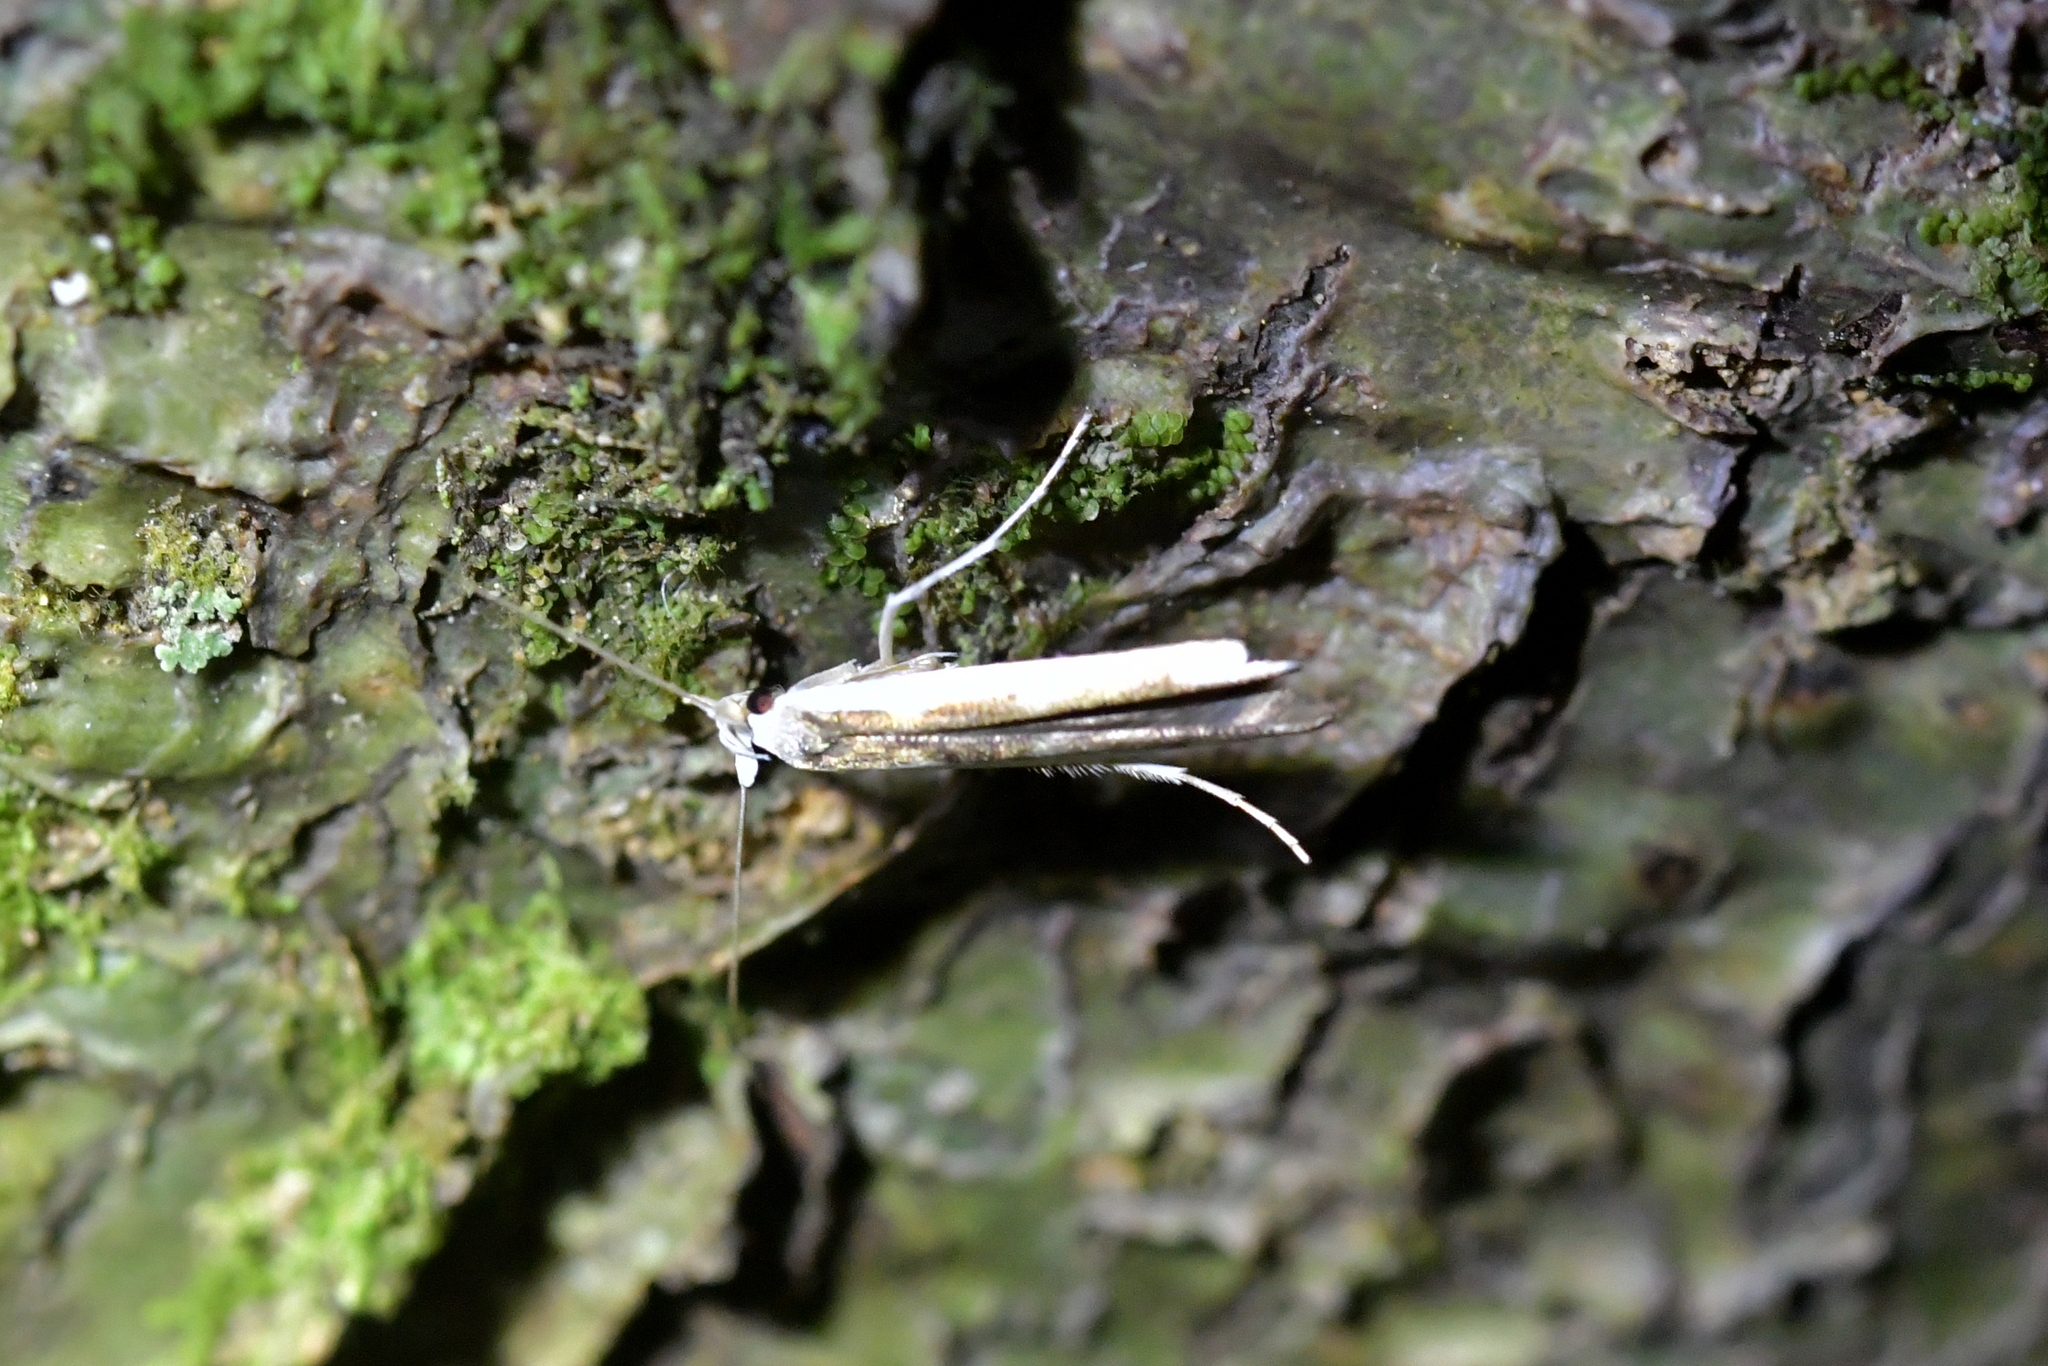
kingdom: Animalia
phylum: Arthropoda
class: Insecta
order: Lepidoptera
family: Roeslerstammiidae
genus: Vanicela
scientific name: Vanicela disjunctella
